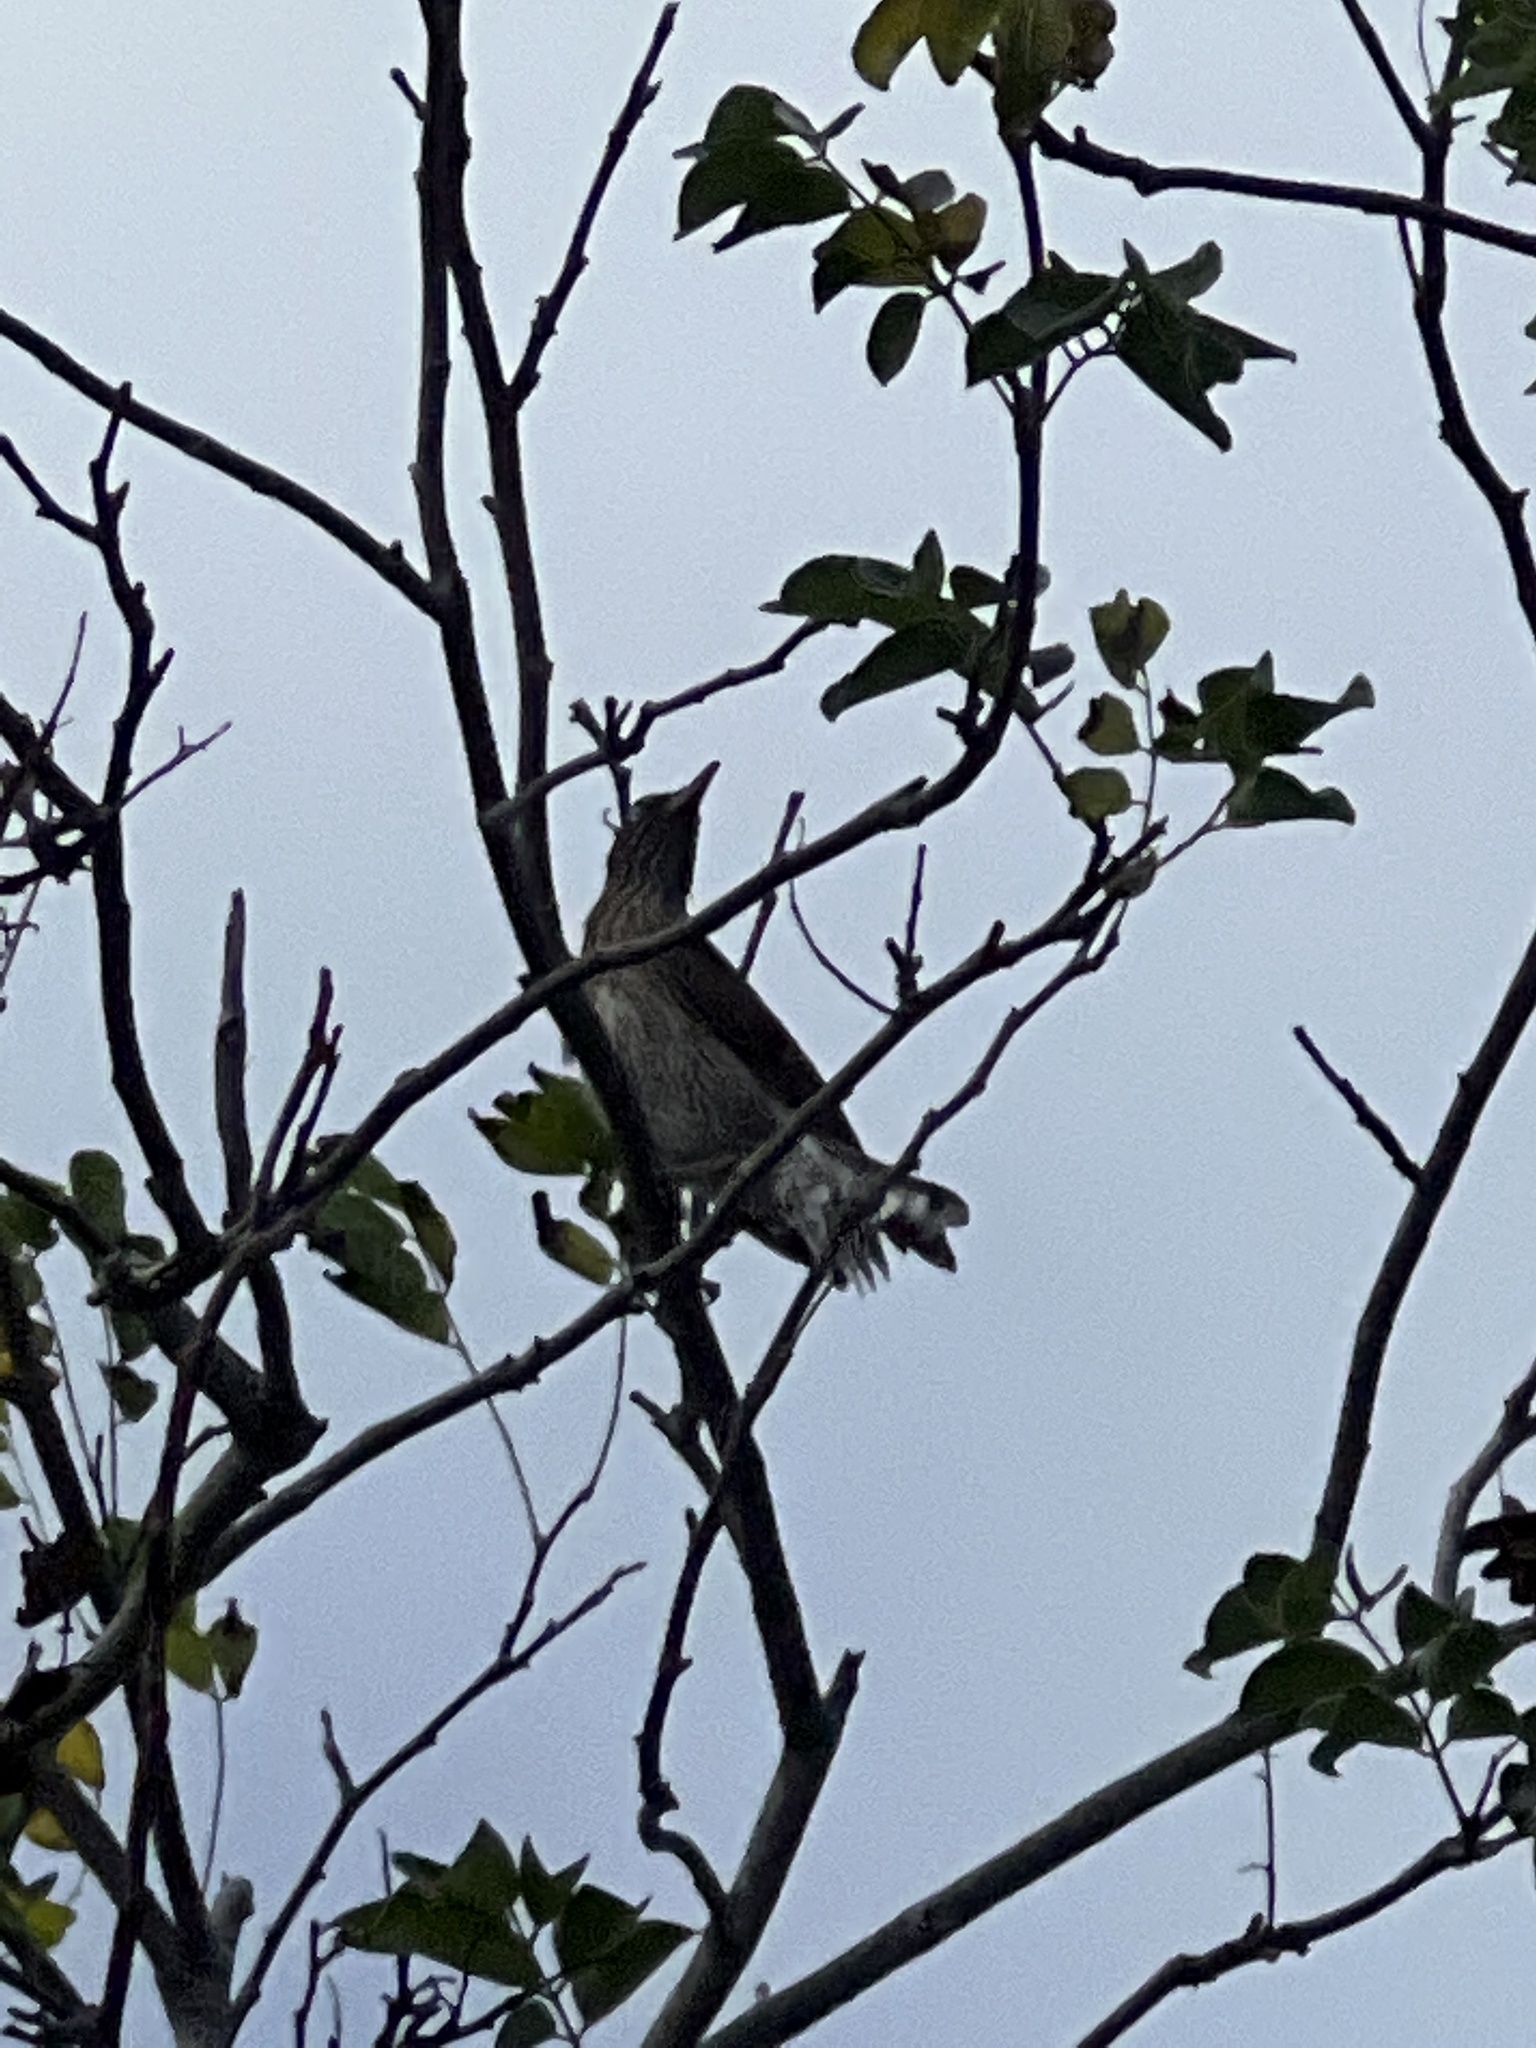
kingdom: Animalia
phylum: Chordata
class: Aves
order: Passeriformes
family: Mimidae
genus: Margarops
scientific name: Margarops fuscatus
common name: Pearly-eyed thrasher
